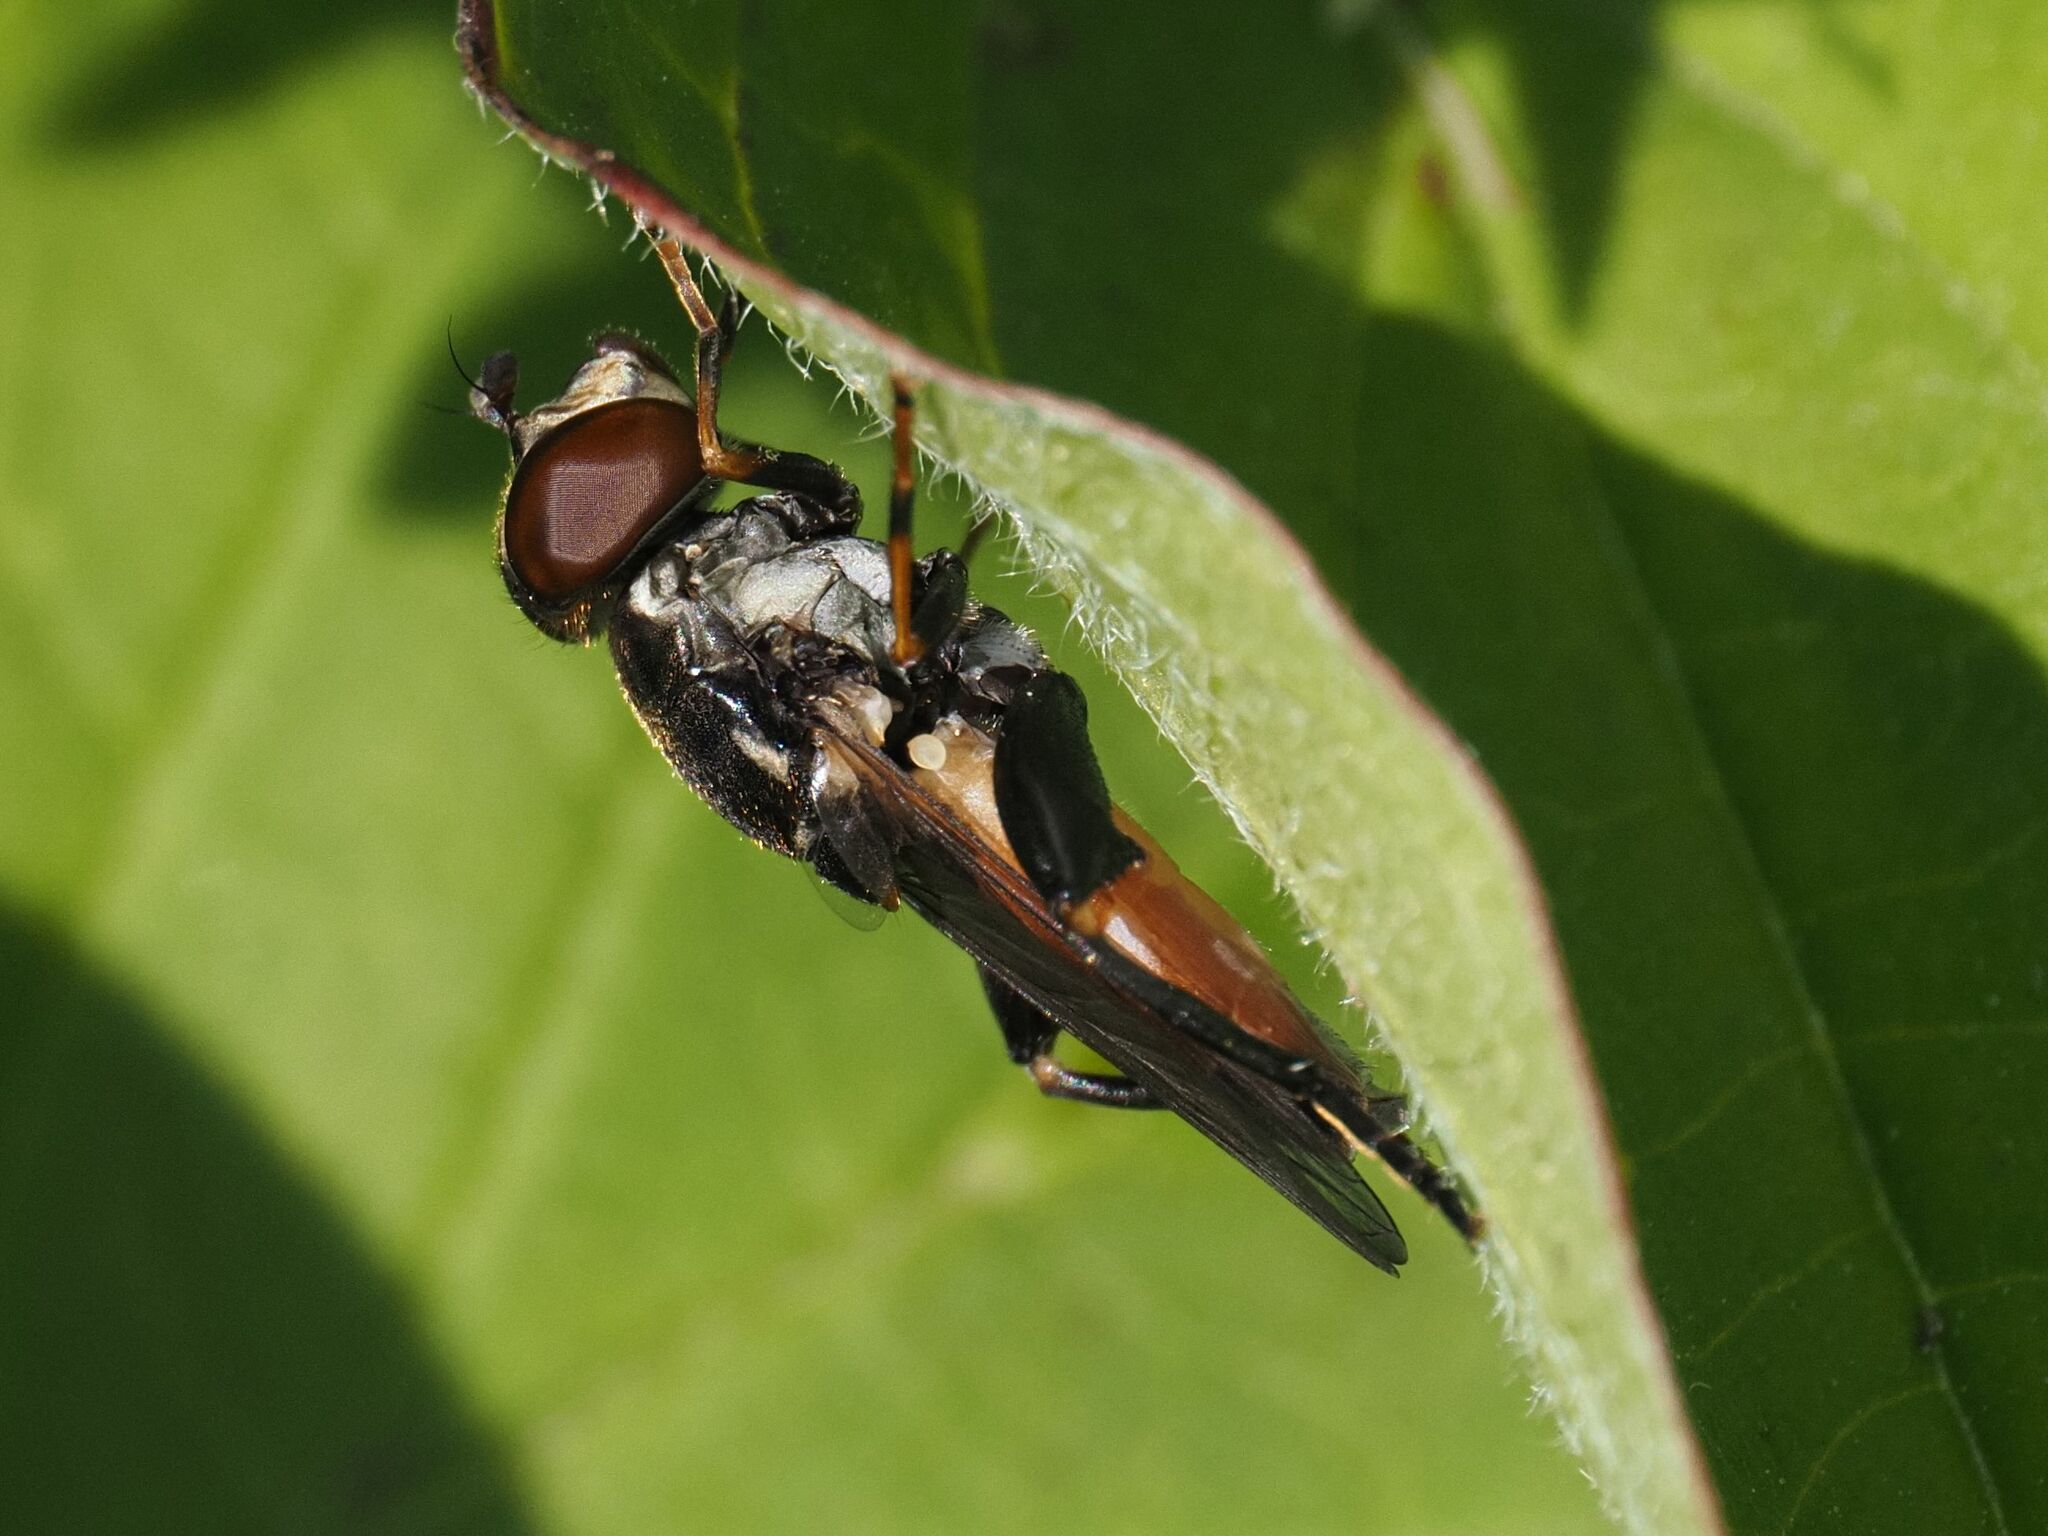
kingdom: Animalia
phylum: Arthropoda
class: Insecta
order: Diptera
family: Syrphidae
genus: Tropidia
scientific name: Tropidia scita
